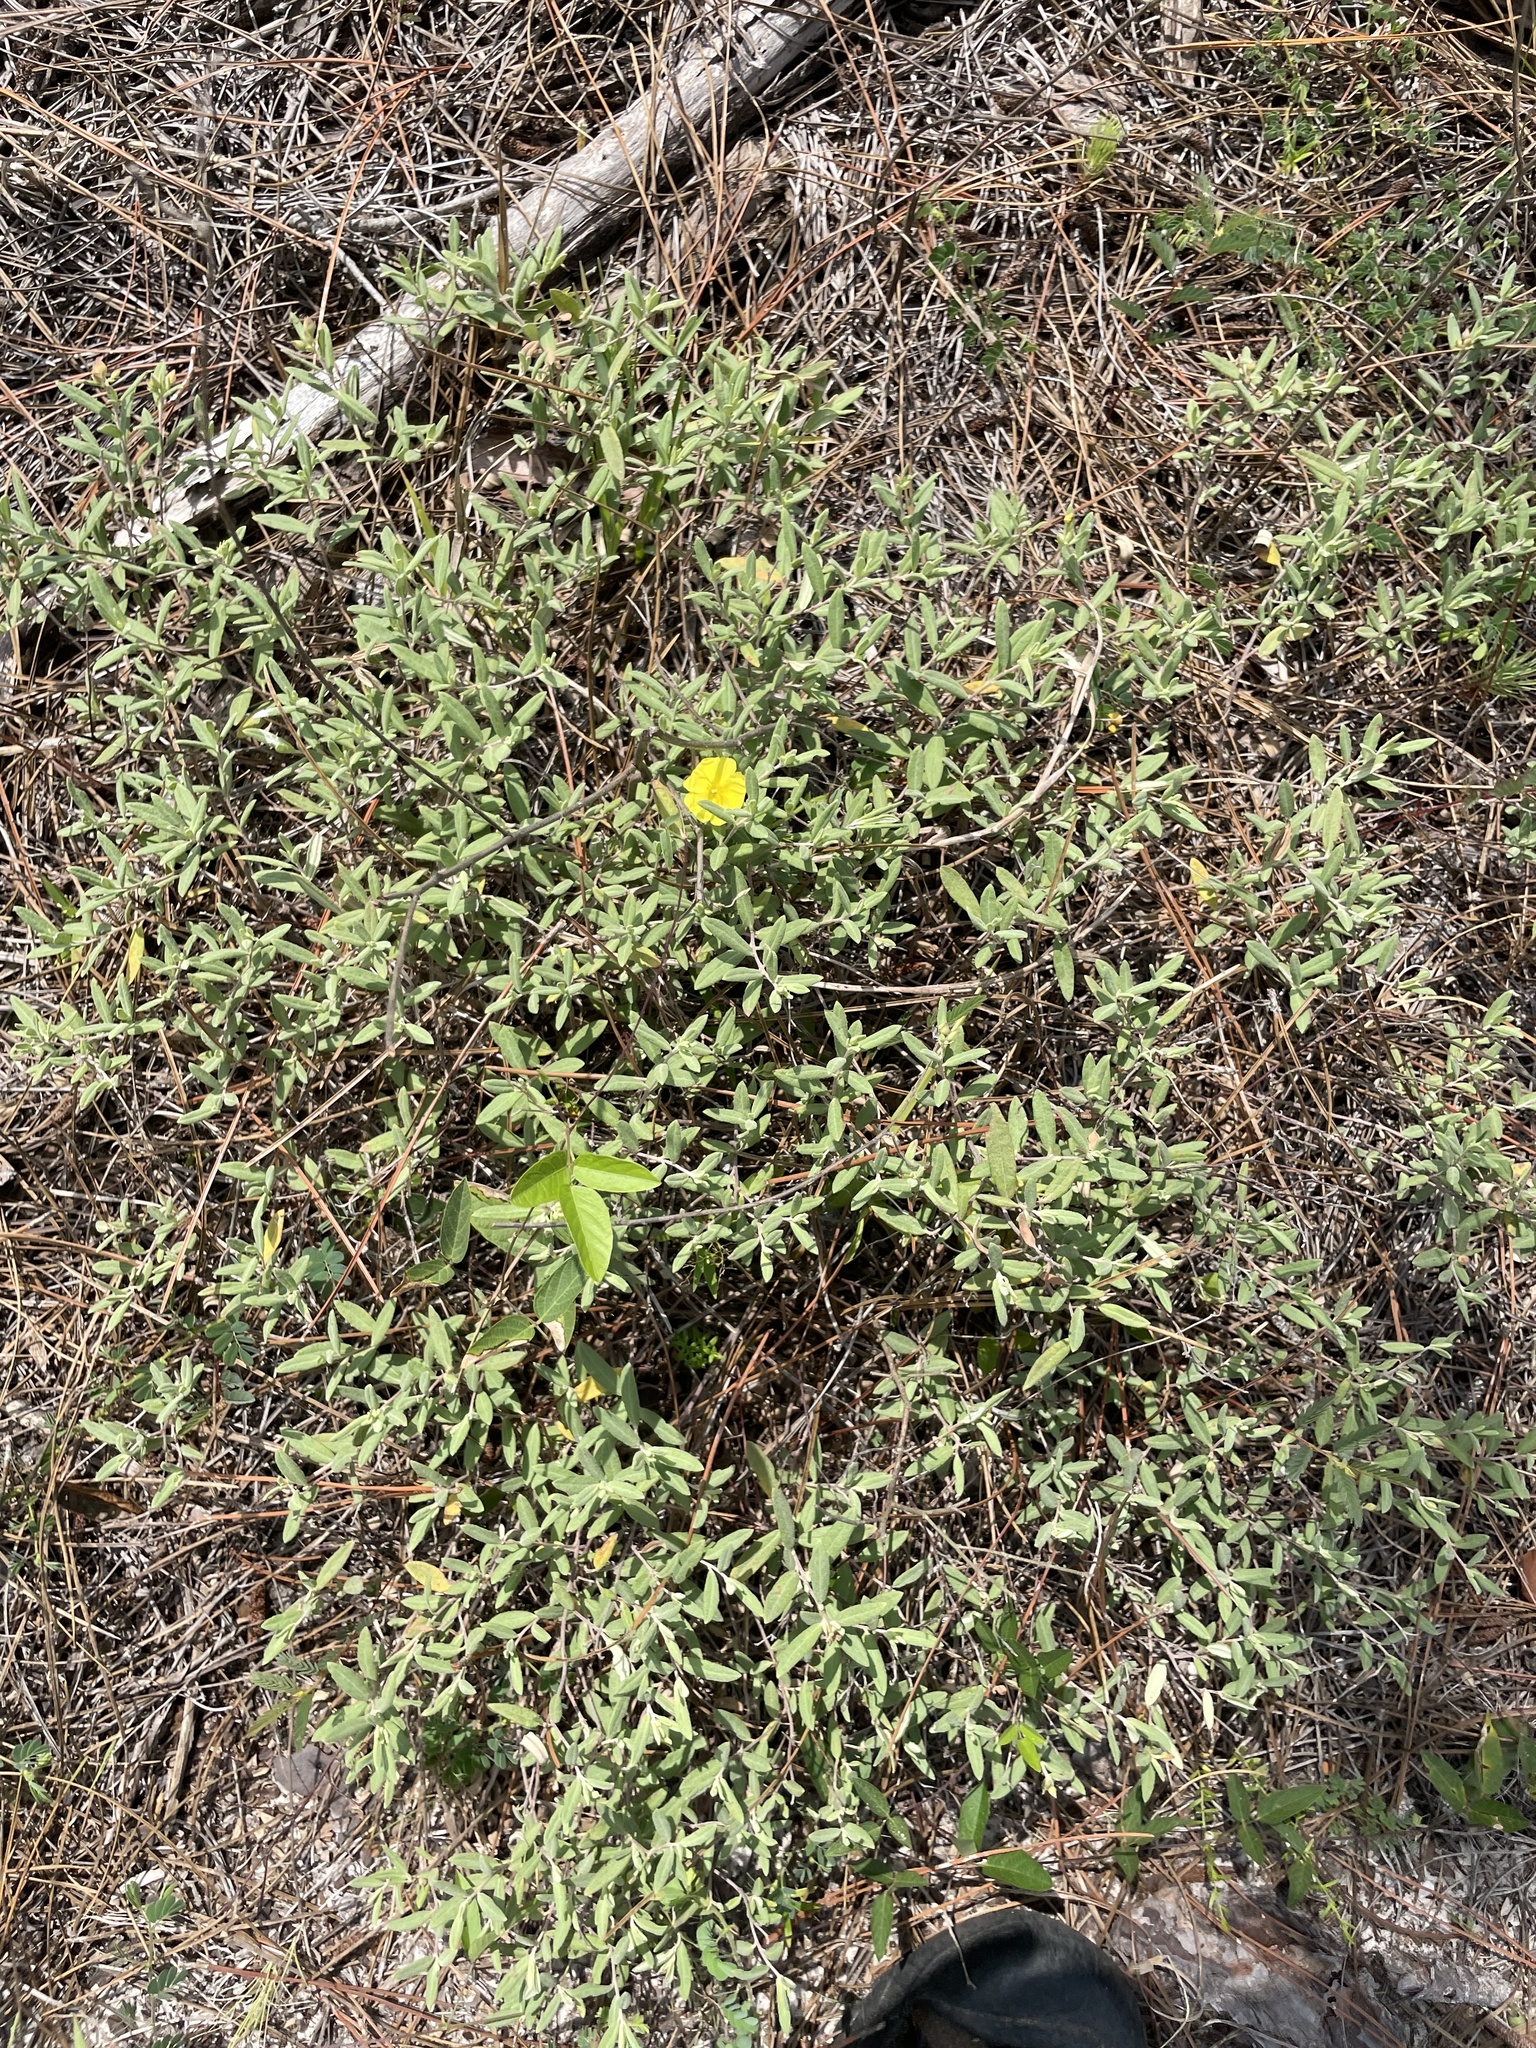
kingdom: Plantae
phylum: Tracheophyta
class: Magnoliopsida
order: Malvales
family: Cistaceae
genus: Crocanthemum
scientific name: Crocanthemum arenicola
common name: Gulf coast frostweed
